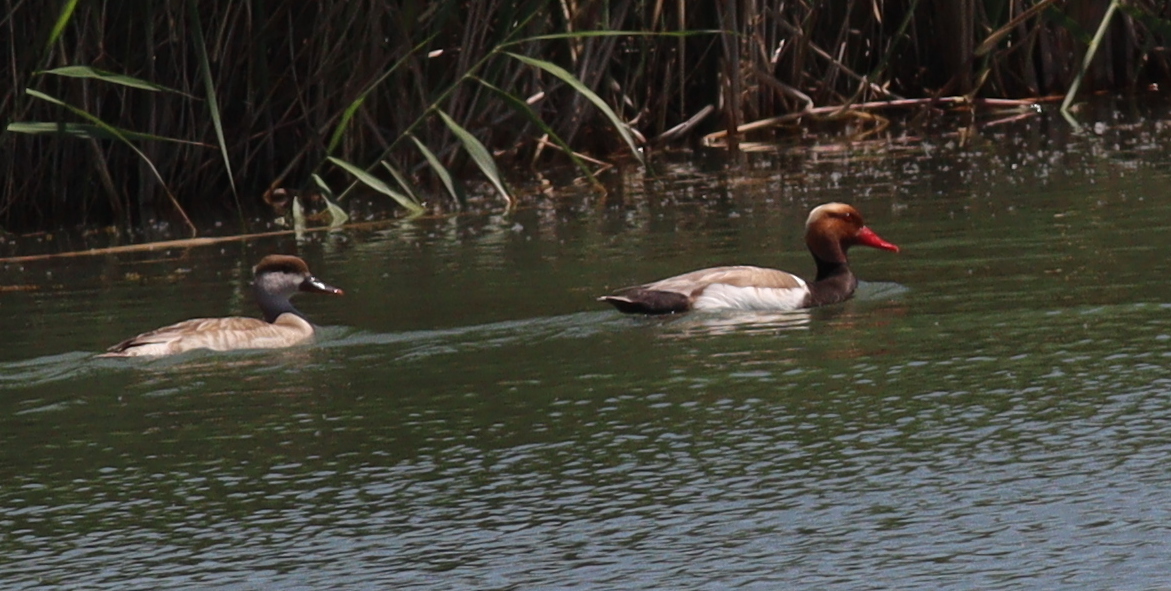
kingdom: Animalia
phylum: Chordata
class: Aves
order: Anseriformes
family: Anatidae
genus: Netta
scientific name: Netta rufina
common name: Red-crested pochard
